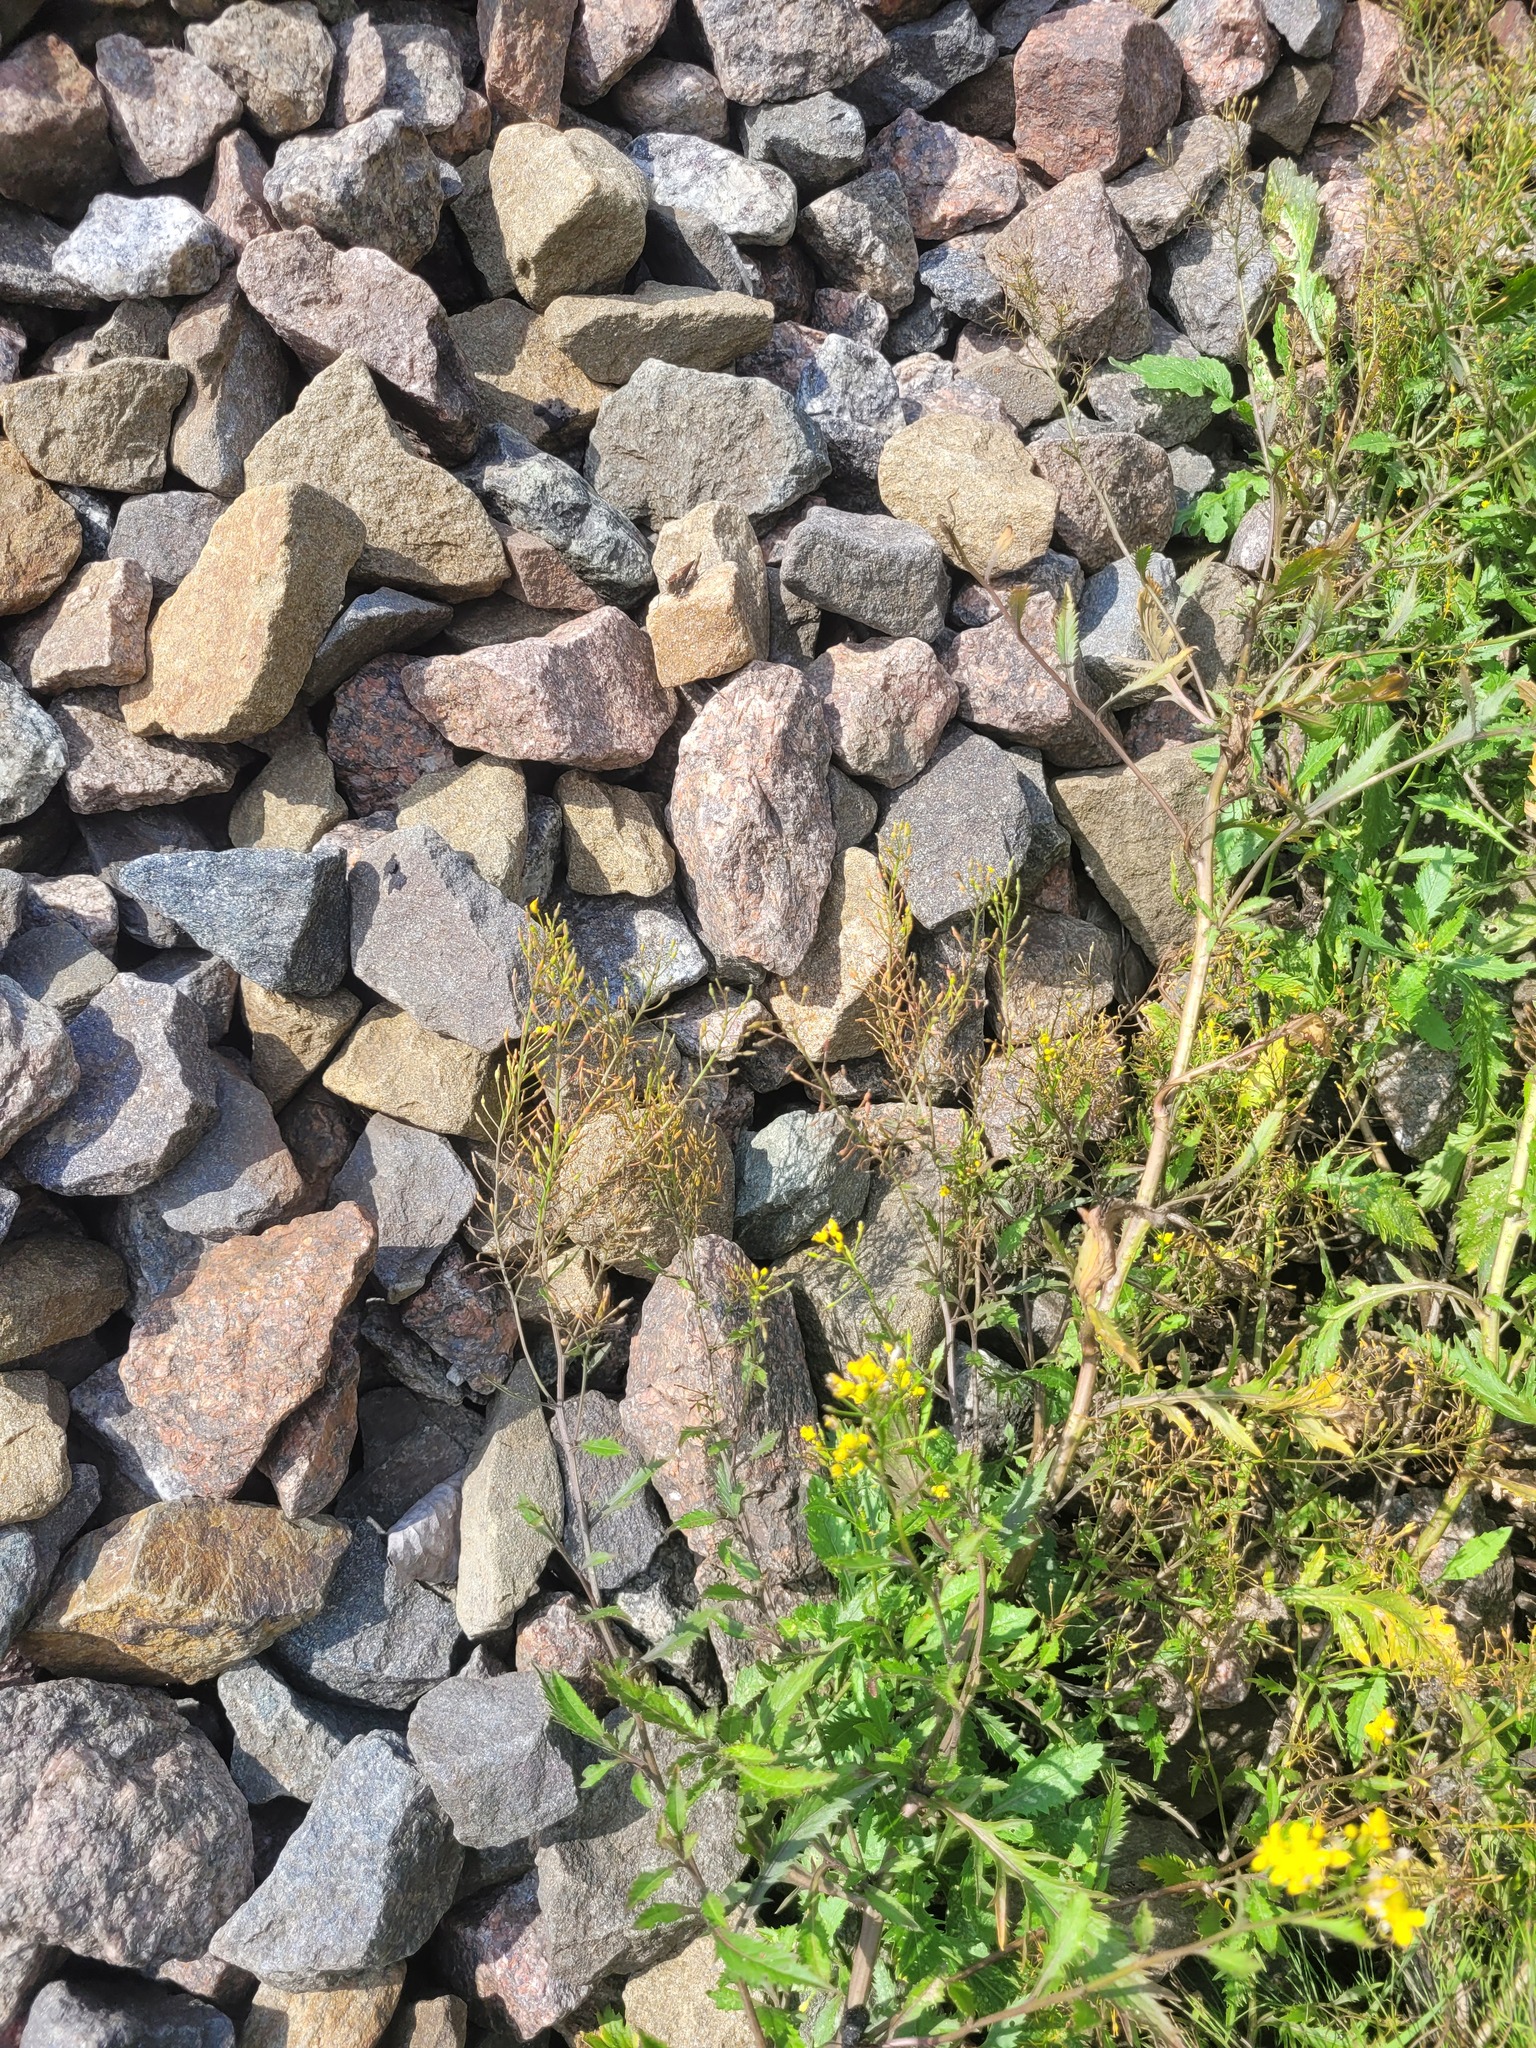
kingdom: Plantae
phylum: Tracheophyta
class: Magnoliopsida
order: Brassicales
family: Brassicaceae
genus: Rorippa
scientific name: Rorippa anceps
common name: Rorippa
